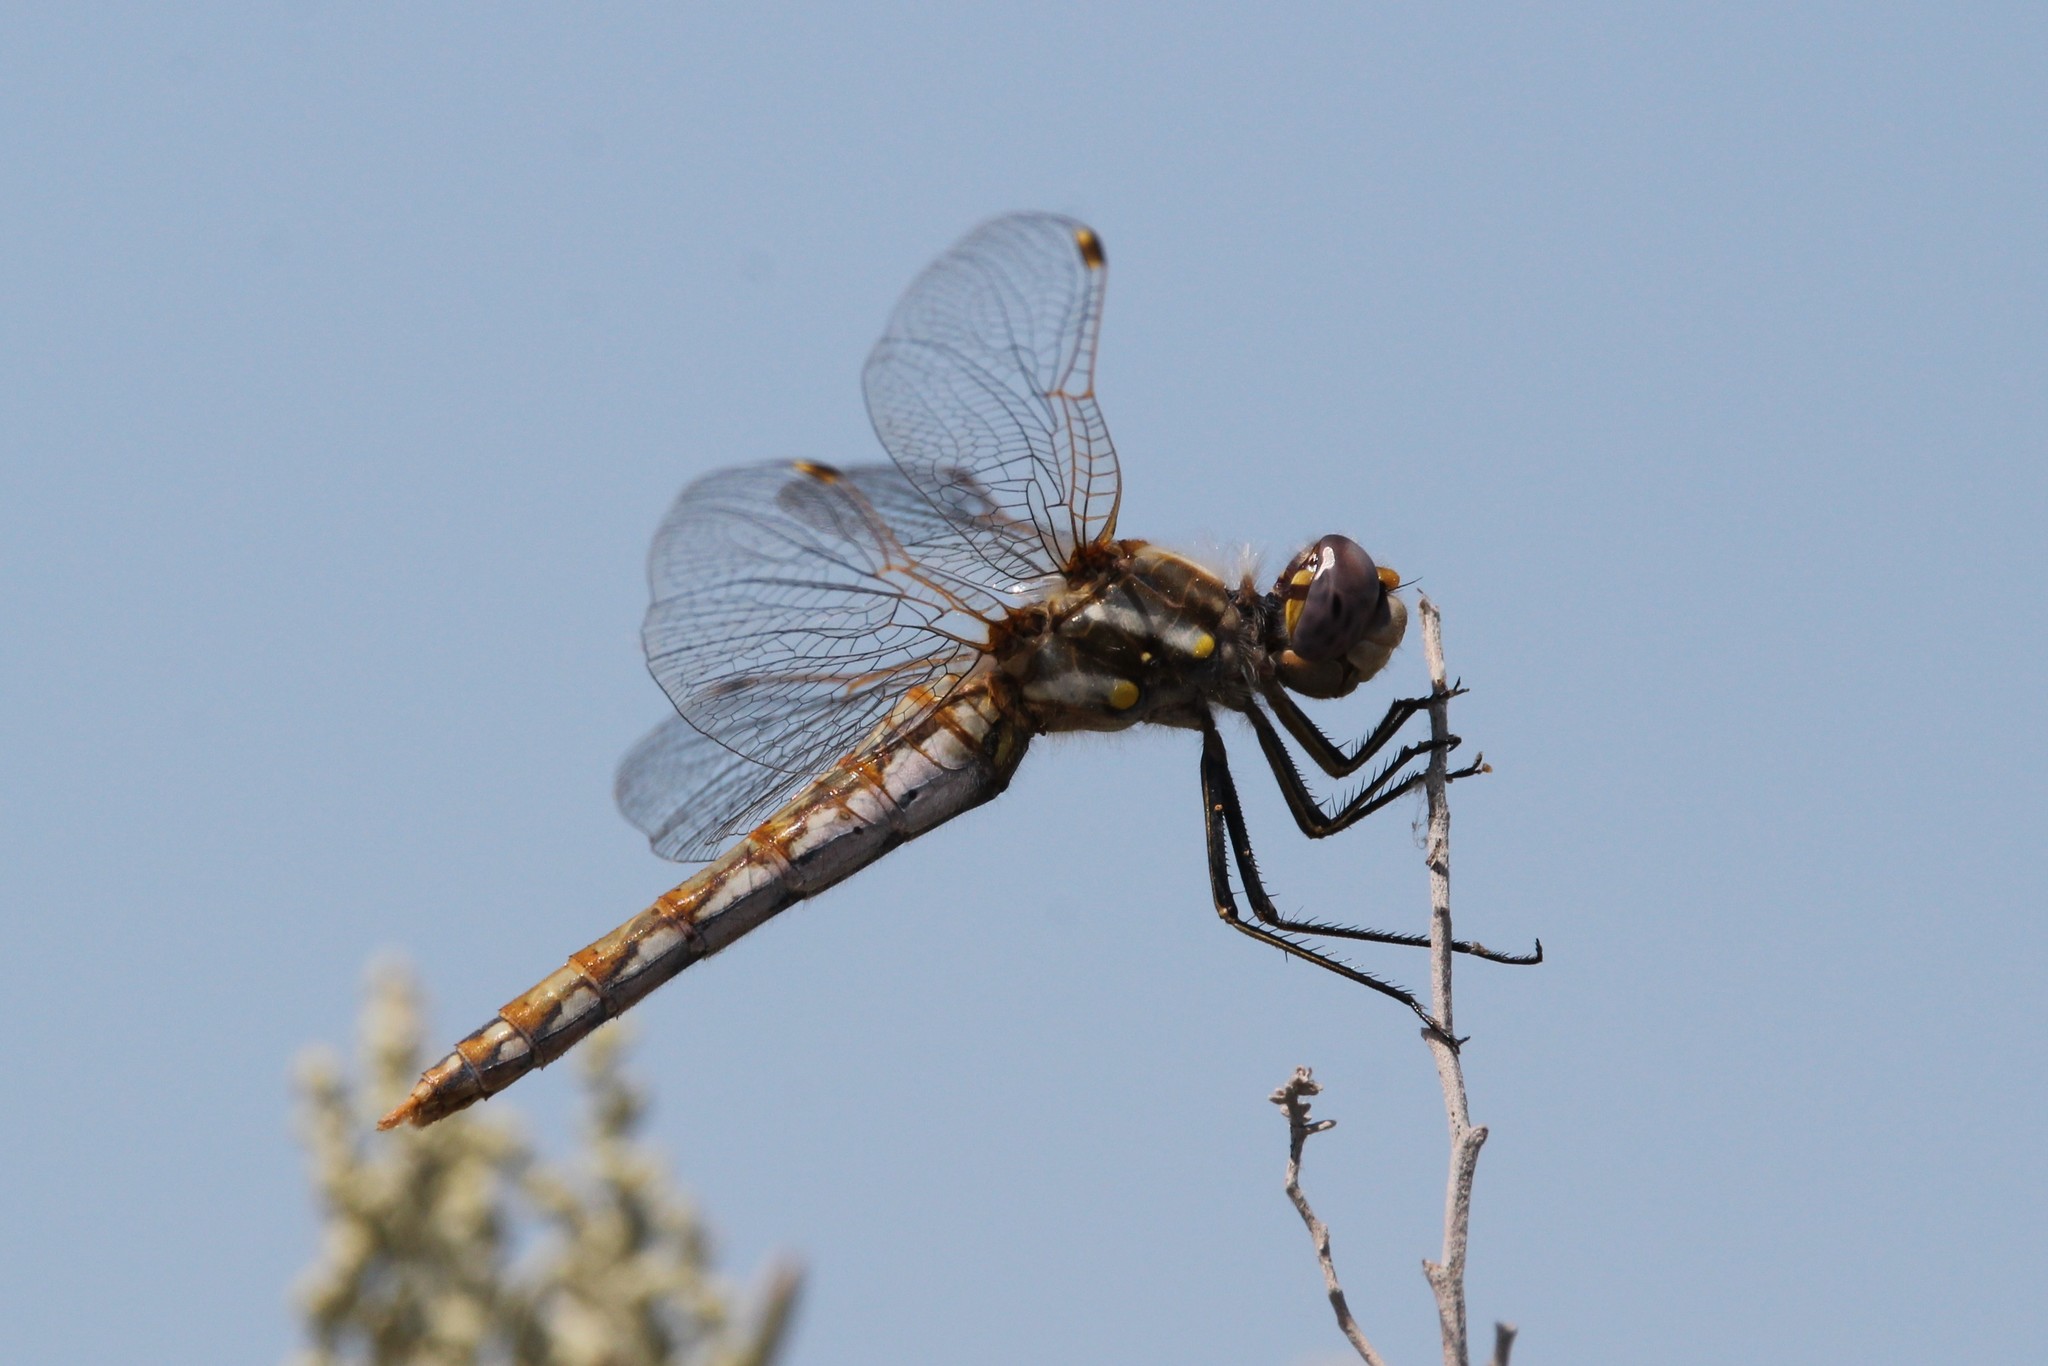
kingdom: Animalia
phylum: Arthropoda
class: Insecta
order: Odonata
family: Libellulidae
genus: Sympetrum
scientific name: Sympetrum corruptum
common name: Variegated meadowhawk
